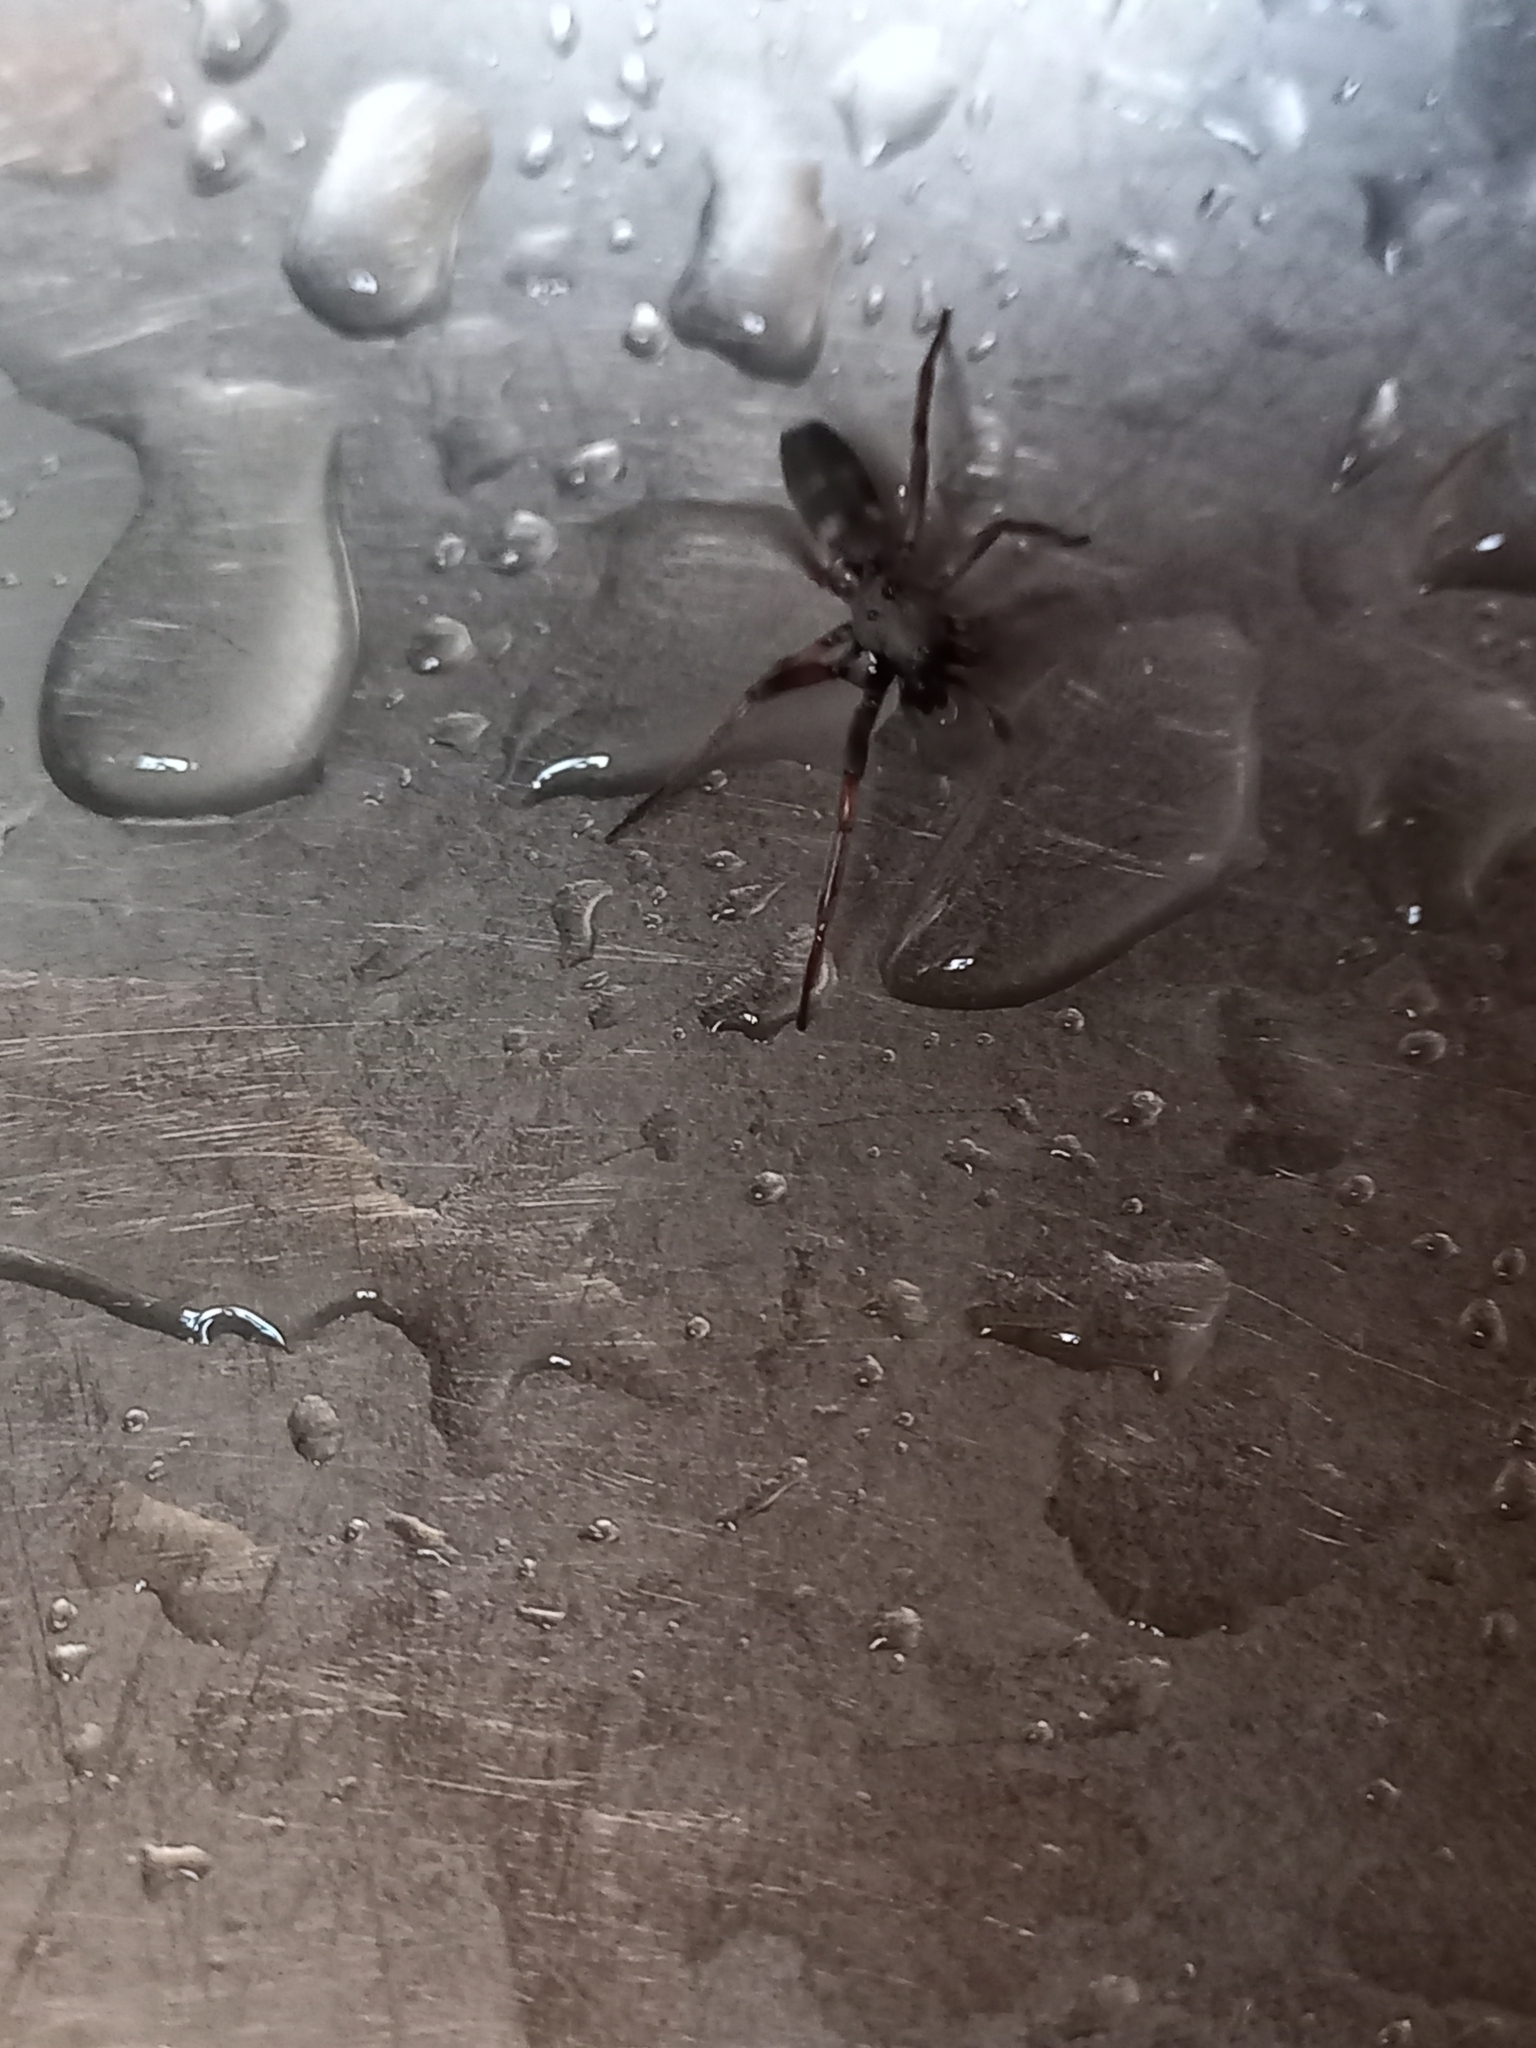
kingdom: Animalia
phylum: Arthropoda
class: Arachnida
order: Araneae
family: Lamponidae
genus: Lampona
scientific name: Lampona cylindrata
